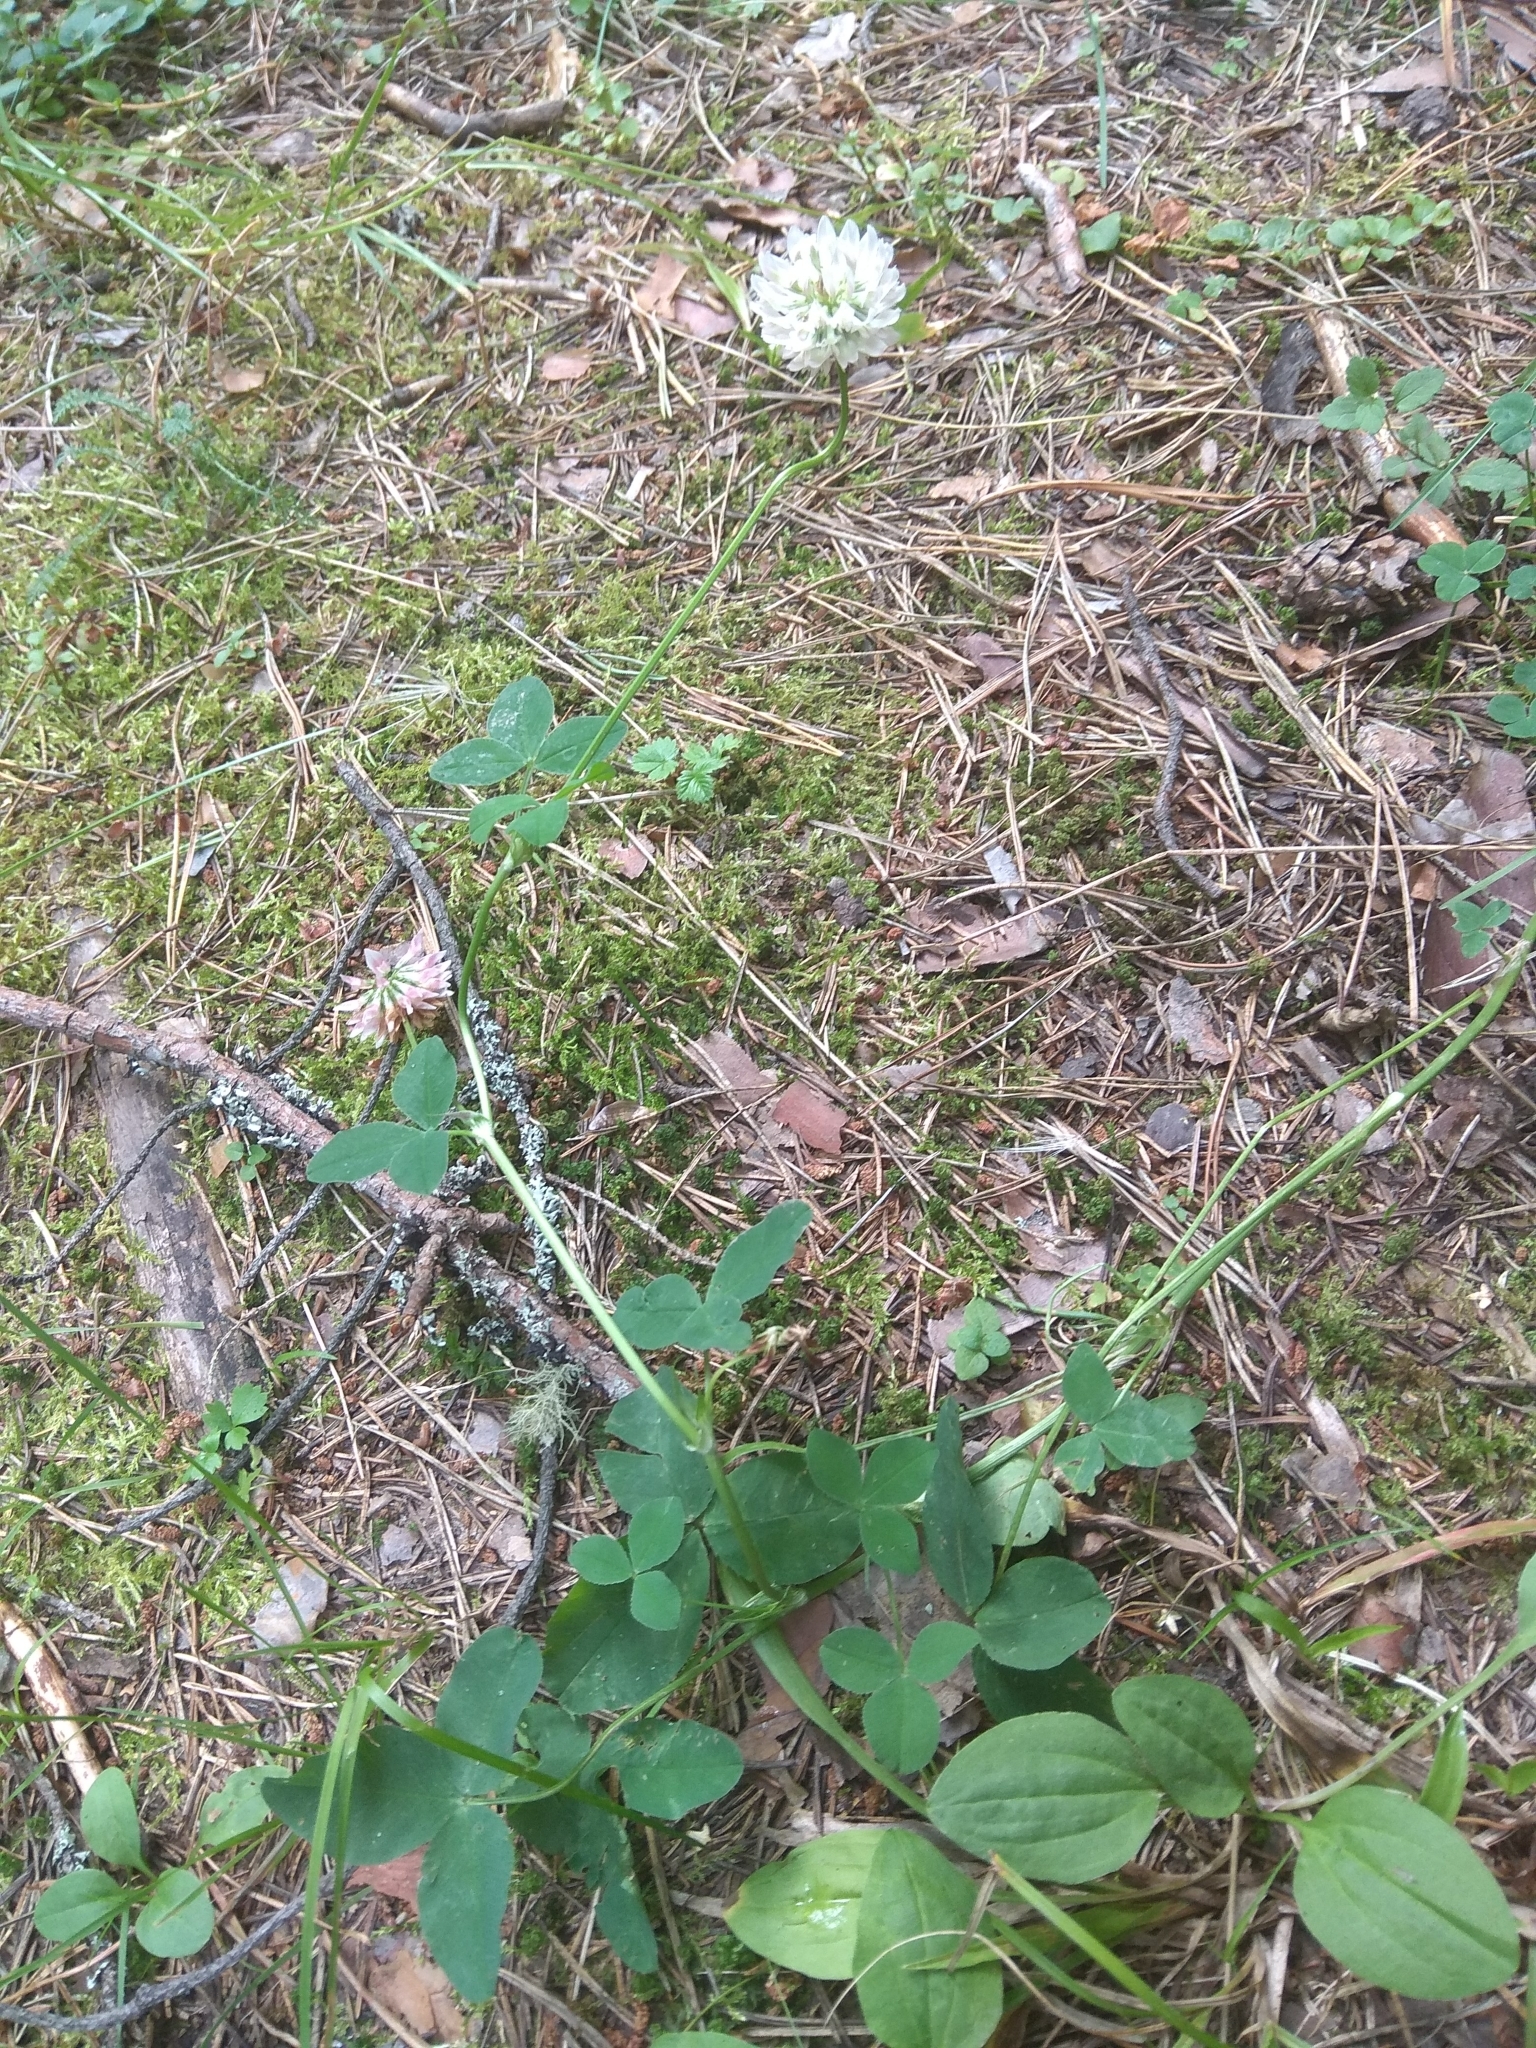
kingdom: Plantae
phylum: Tracheophyta
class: Magnoliopsida
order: Fabales
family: Fabaceae
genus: Trifolium
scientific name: Trifolium hybridum
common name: Alsike clover
